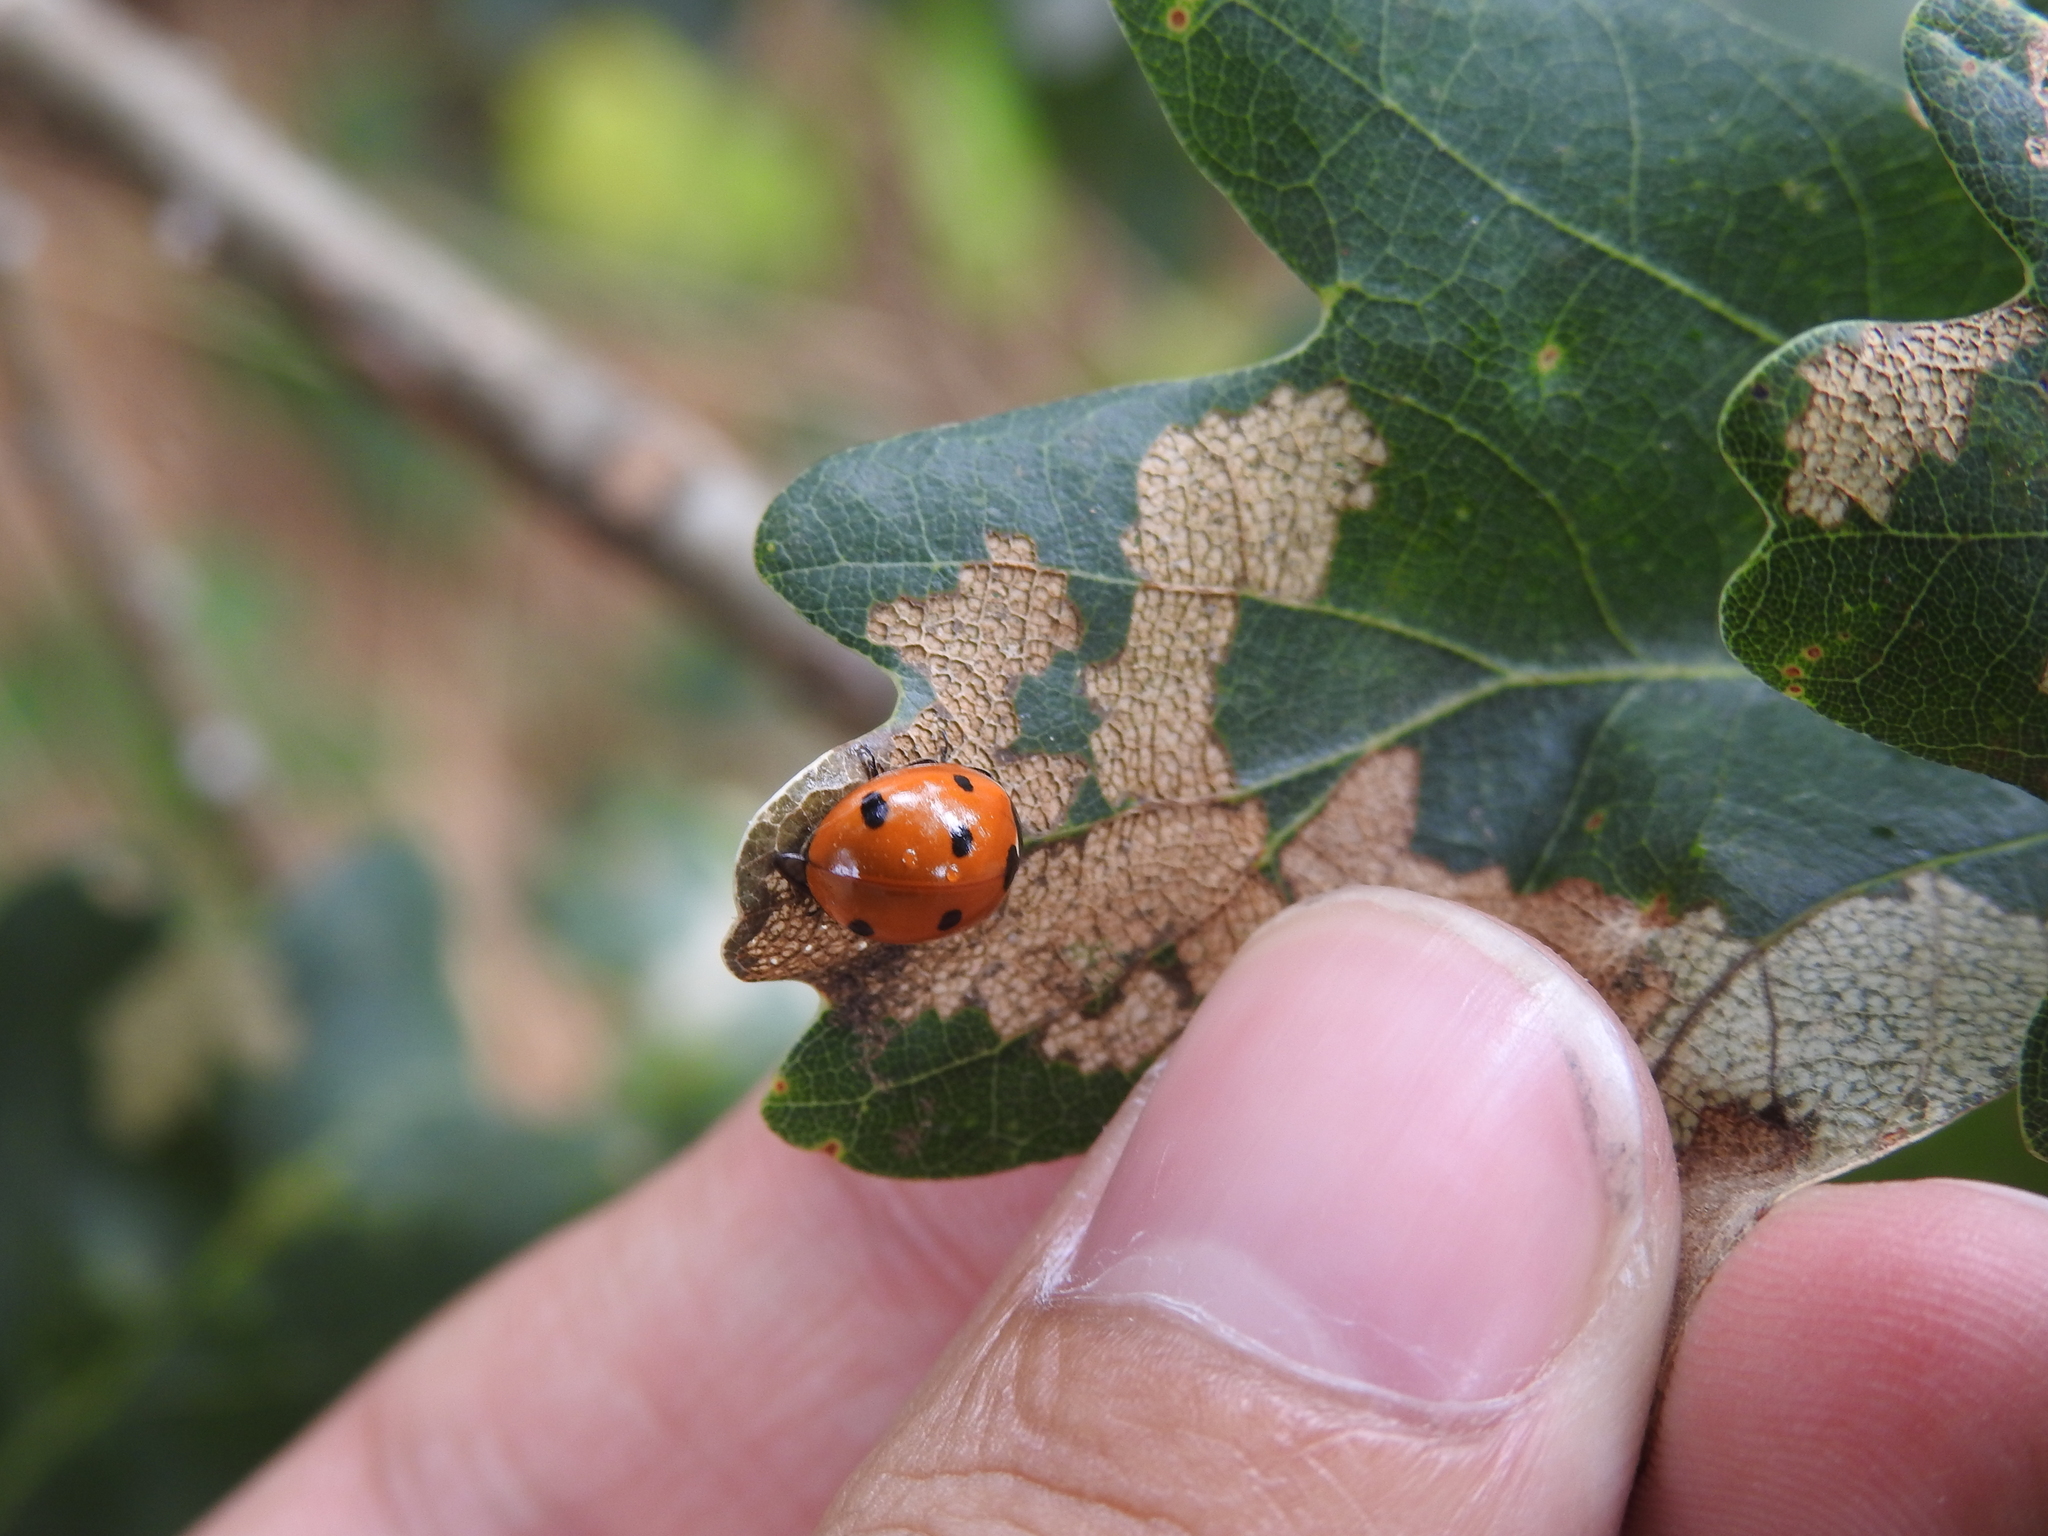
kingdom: Animalia
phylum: Arthropoda
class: Insecta
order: Coleoptera
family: Coccinellidae
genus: Coccinella
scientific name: Coccinella septempunctata
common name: Sevenspotted lady beetle
